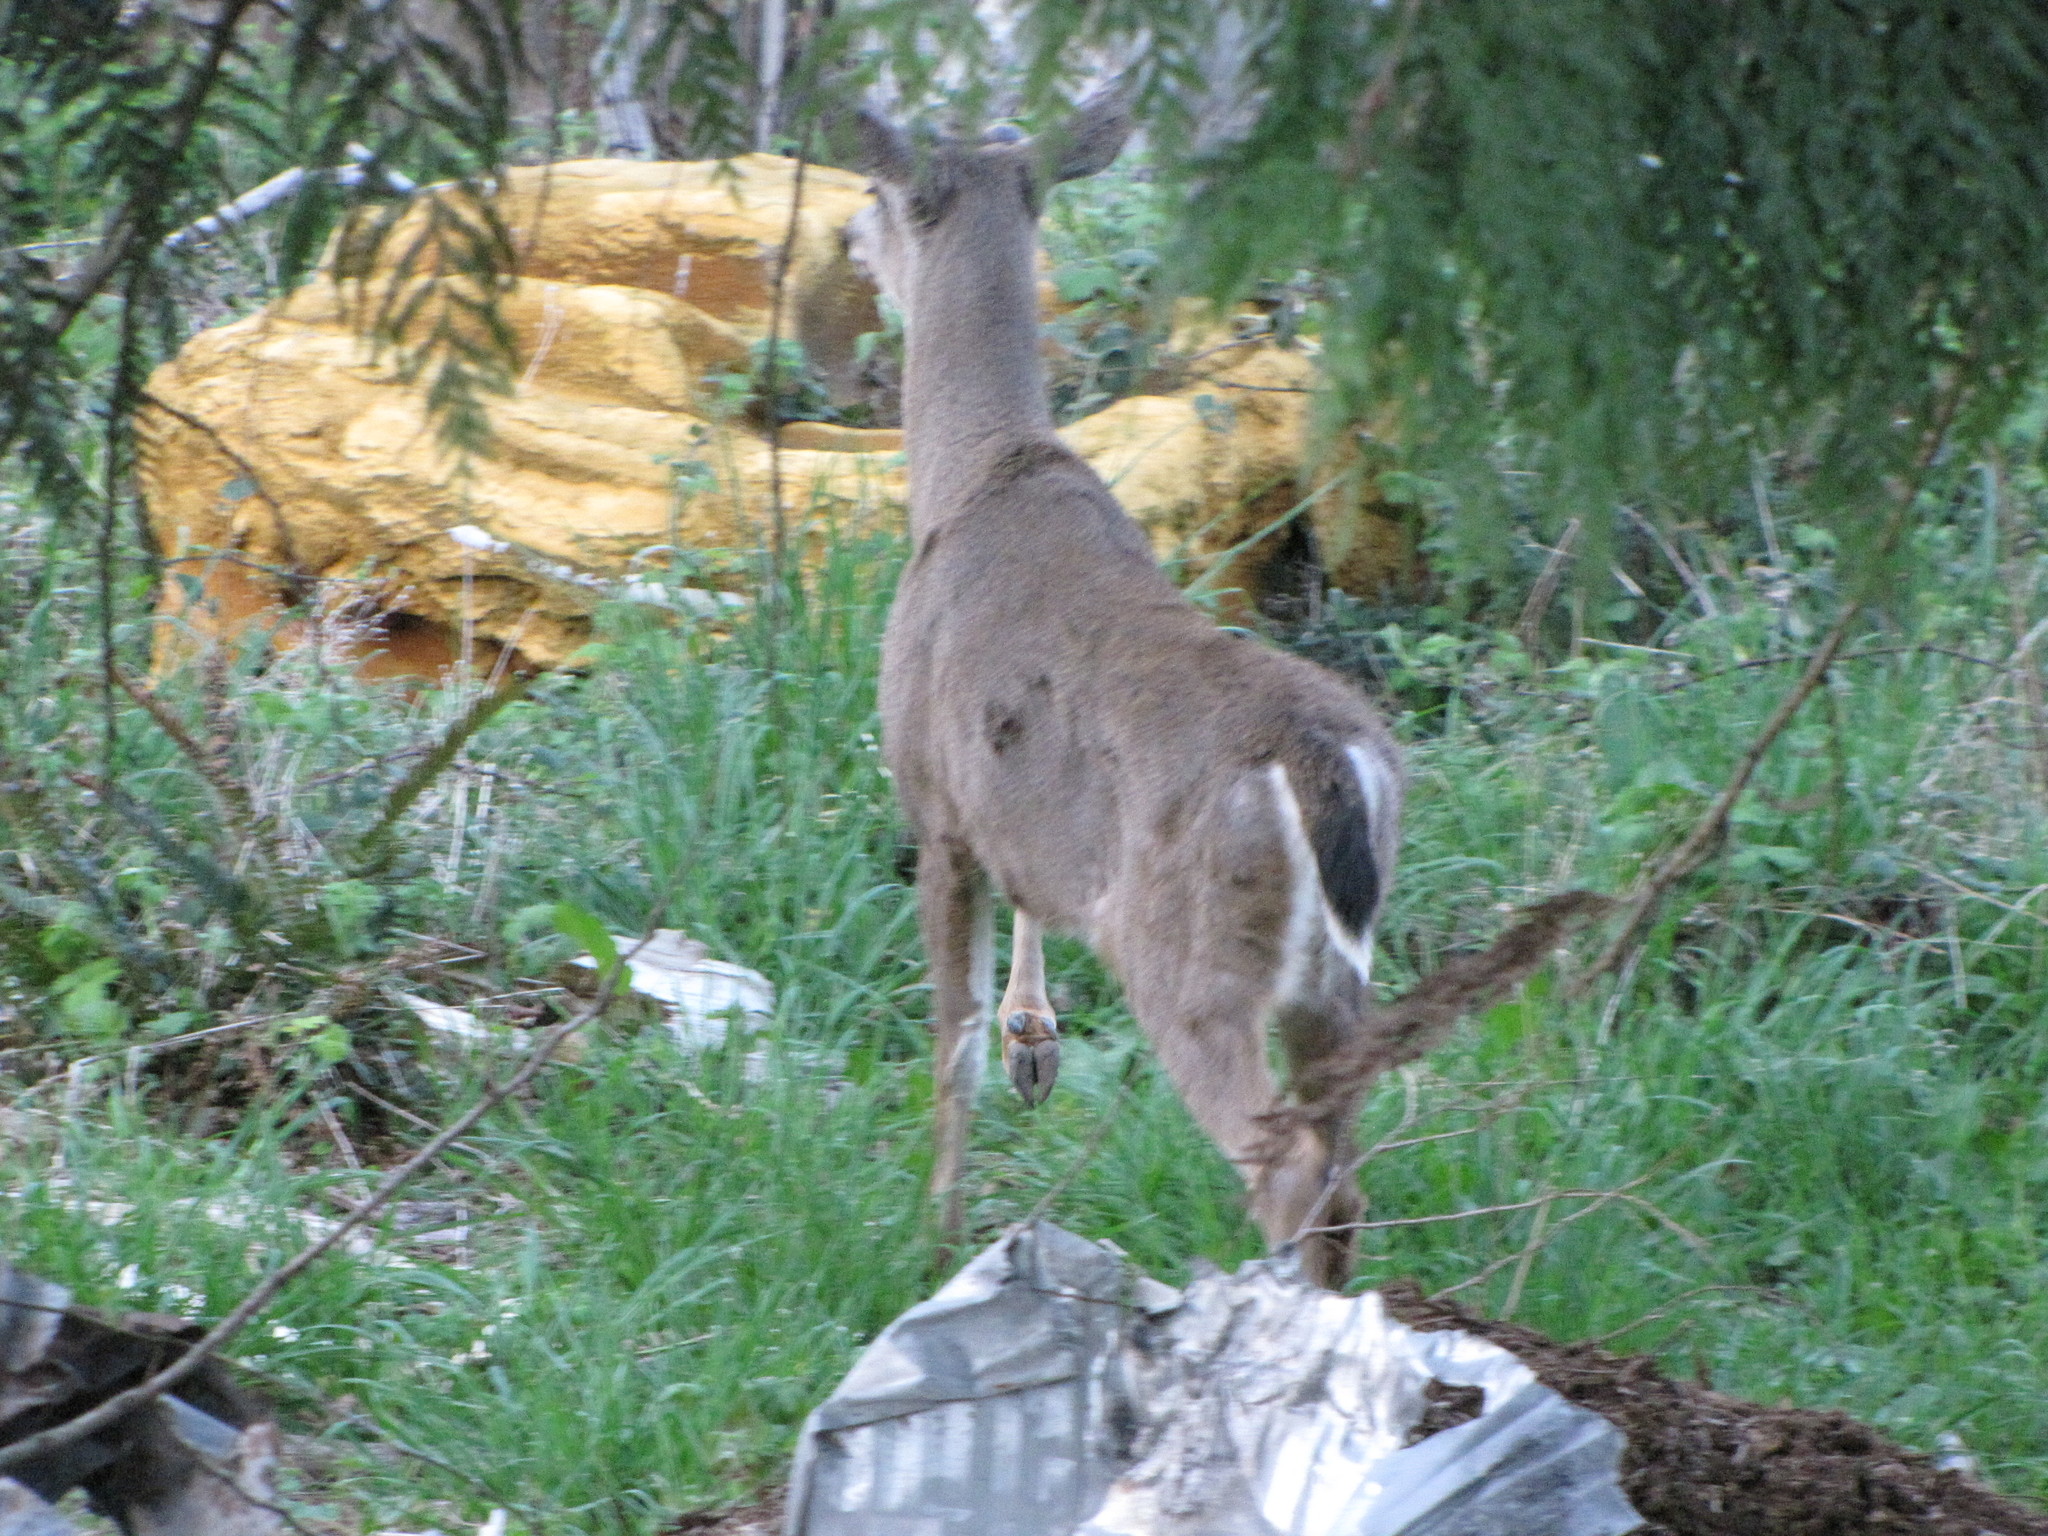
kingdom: Animalia
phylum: Chordata
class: Mammalia
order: Artiodactyla
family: Cervidae
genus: Odocoileus
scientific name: Odocoileus hemionus
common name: Mule deer
